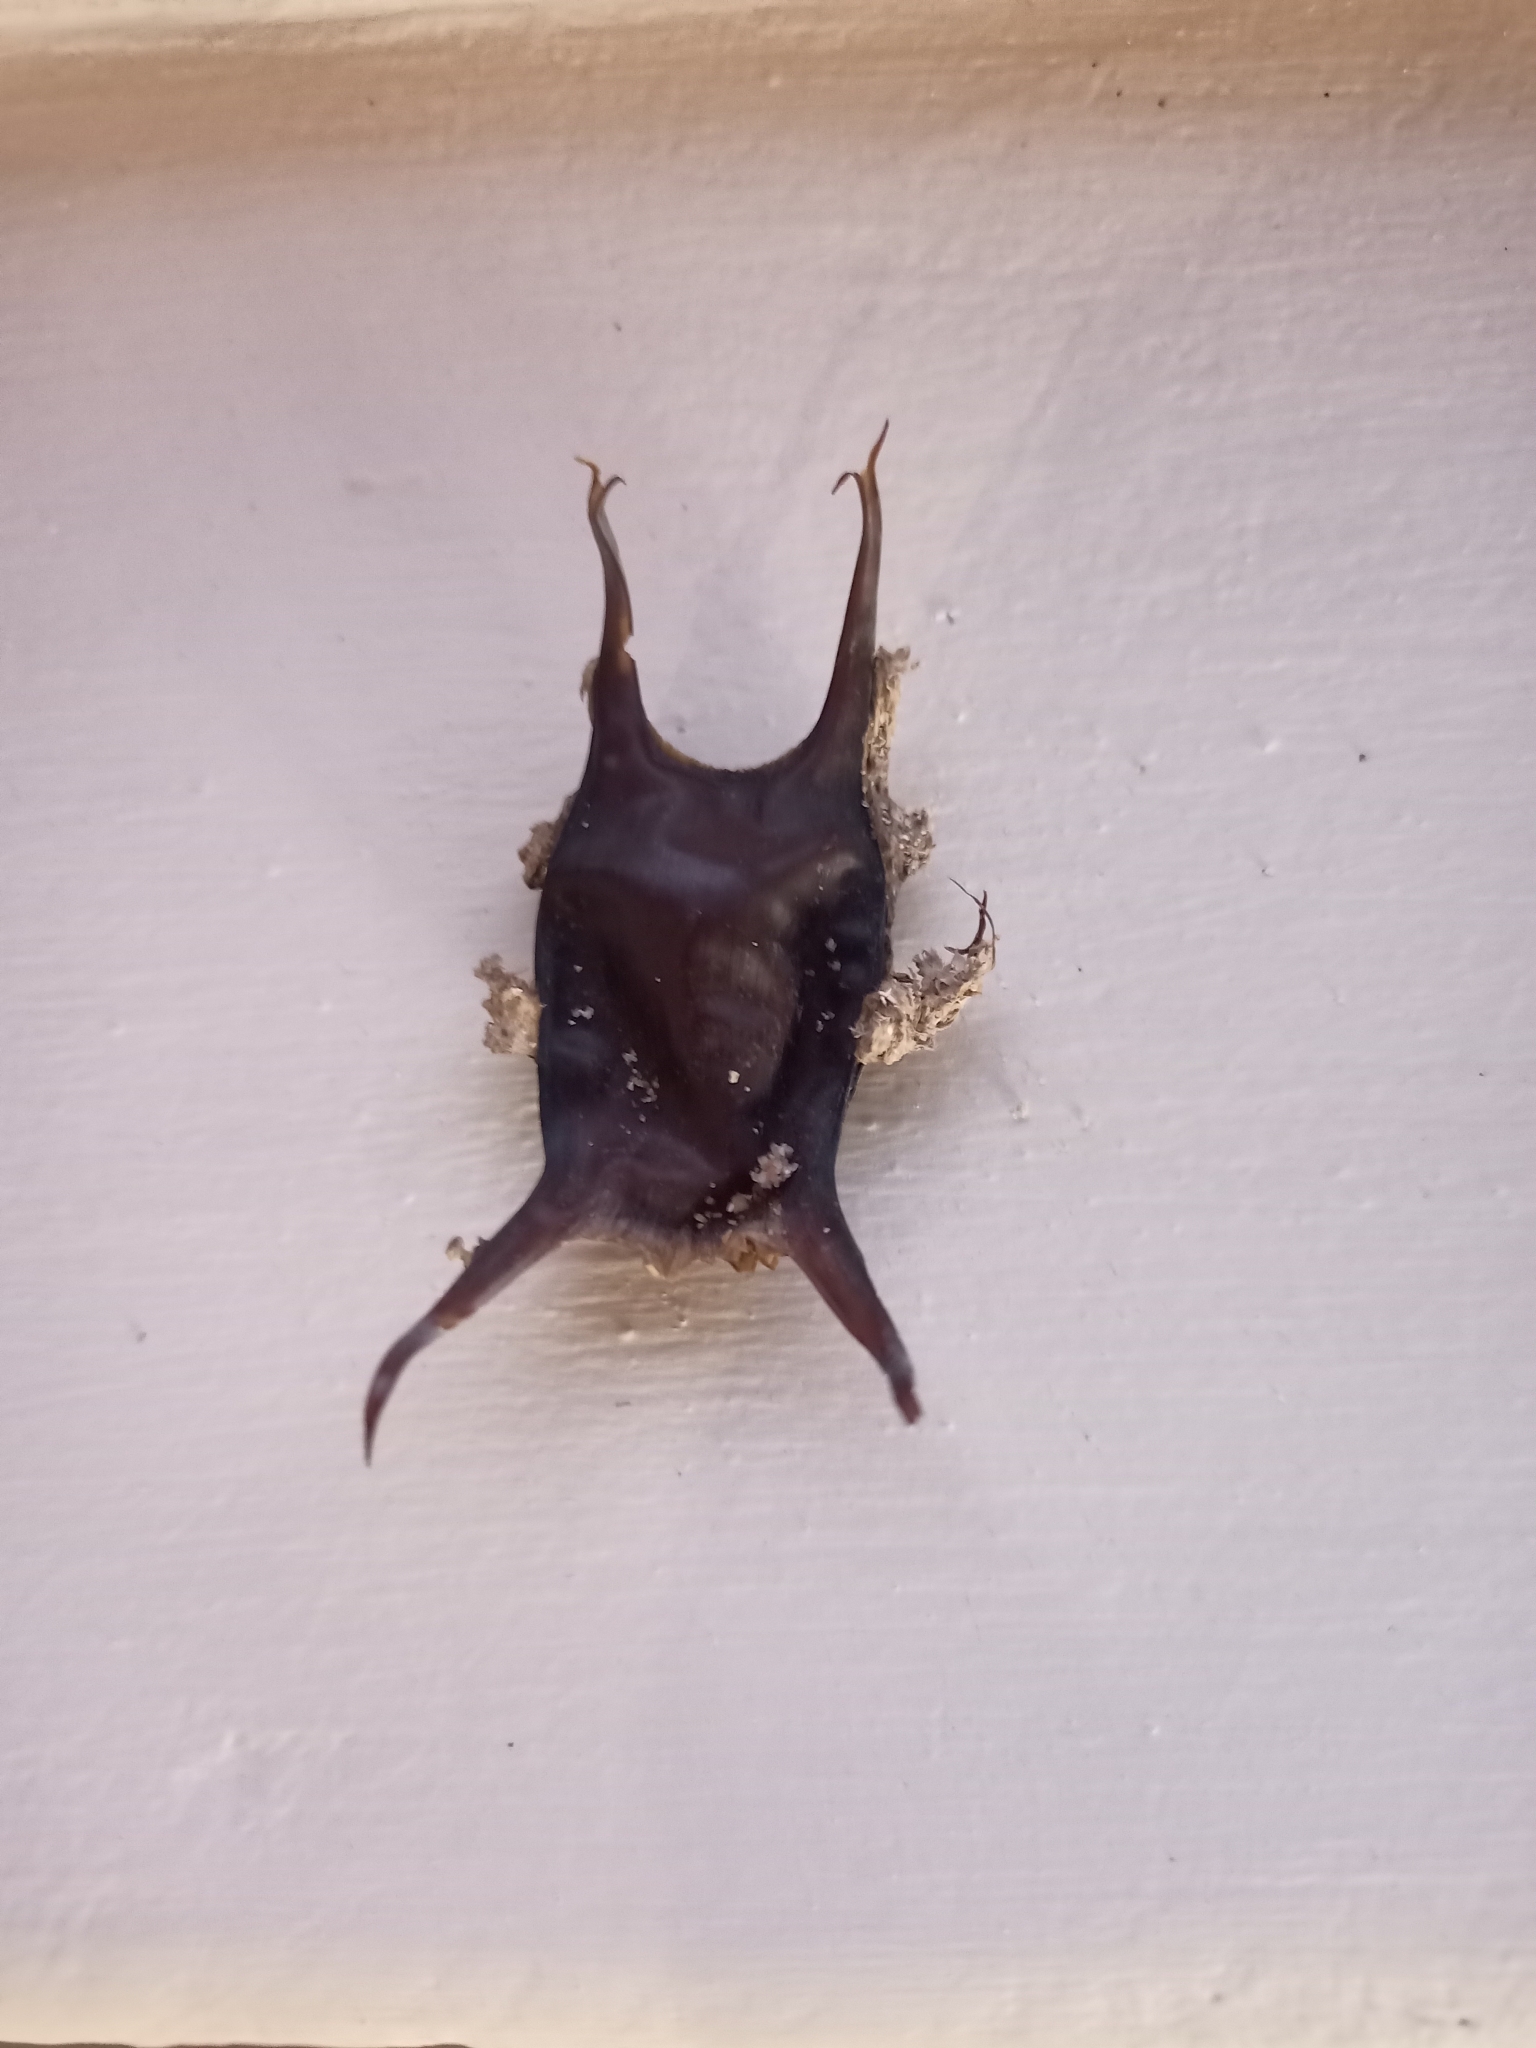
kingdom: Animalia
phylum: Chordata
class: Elasmobranchii
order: Rajiformes
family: Rajidae
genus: Raja
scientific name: Raja ocellifera
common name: Twineye skate
